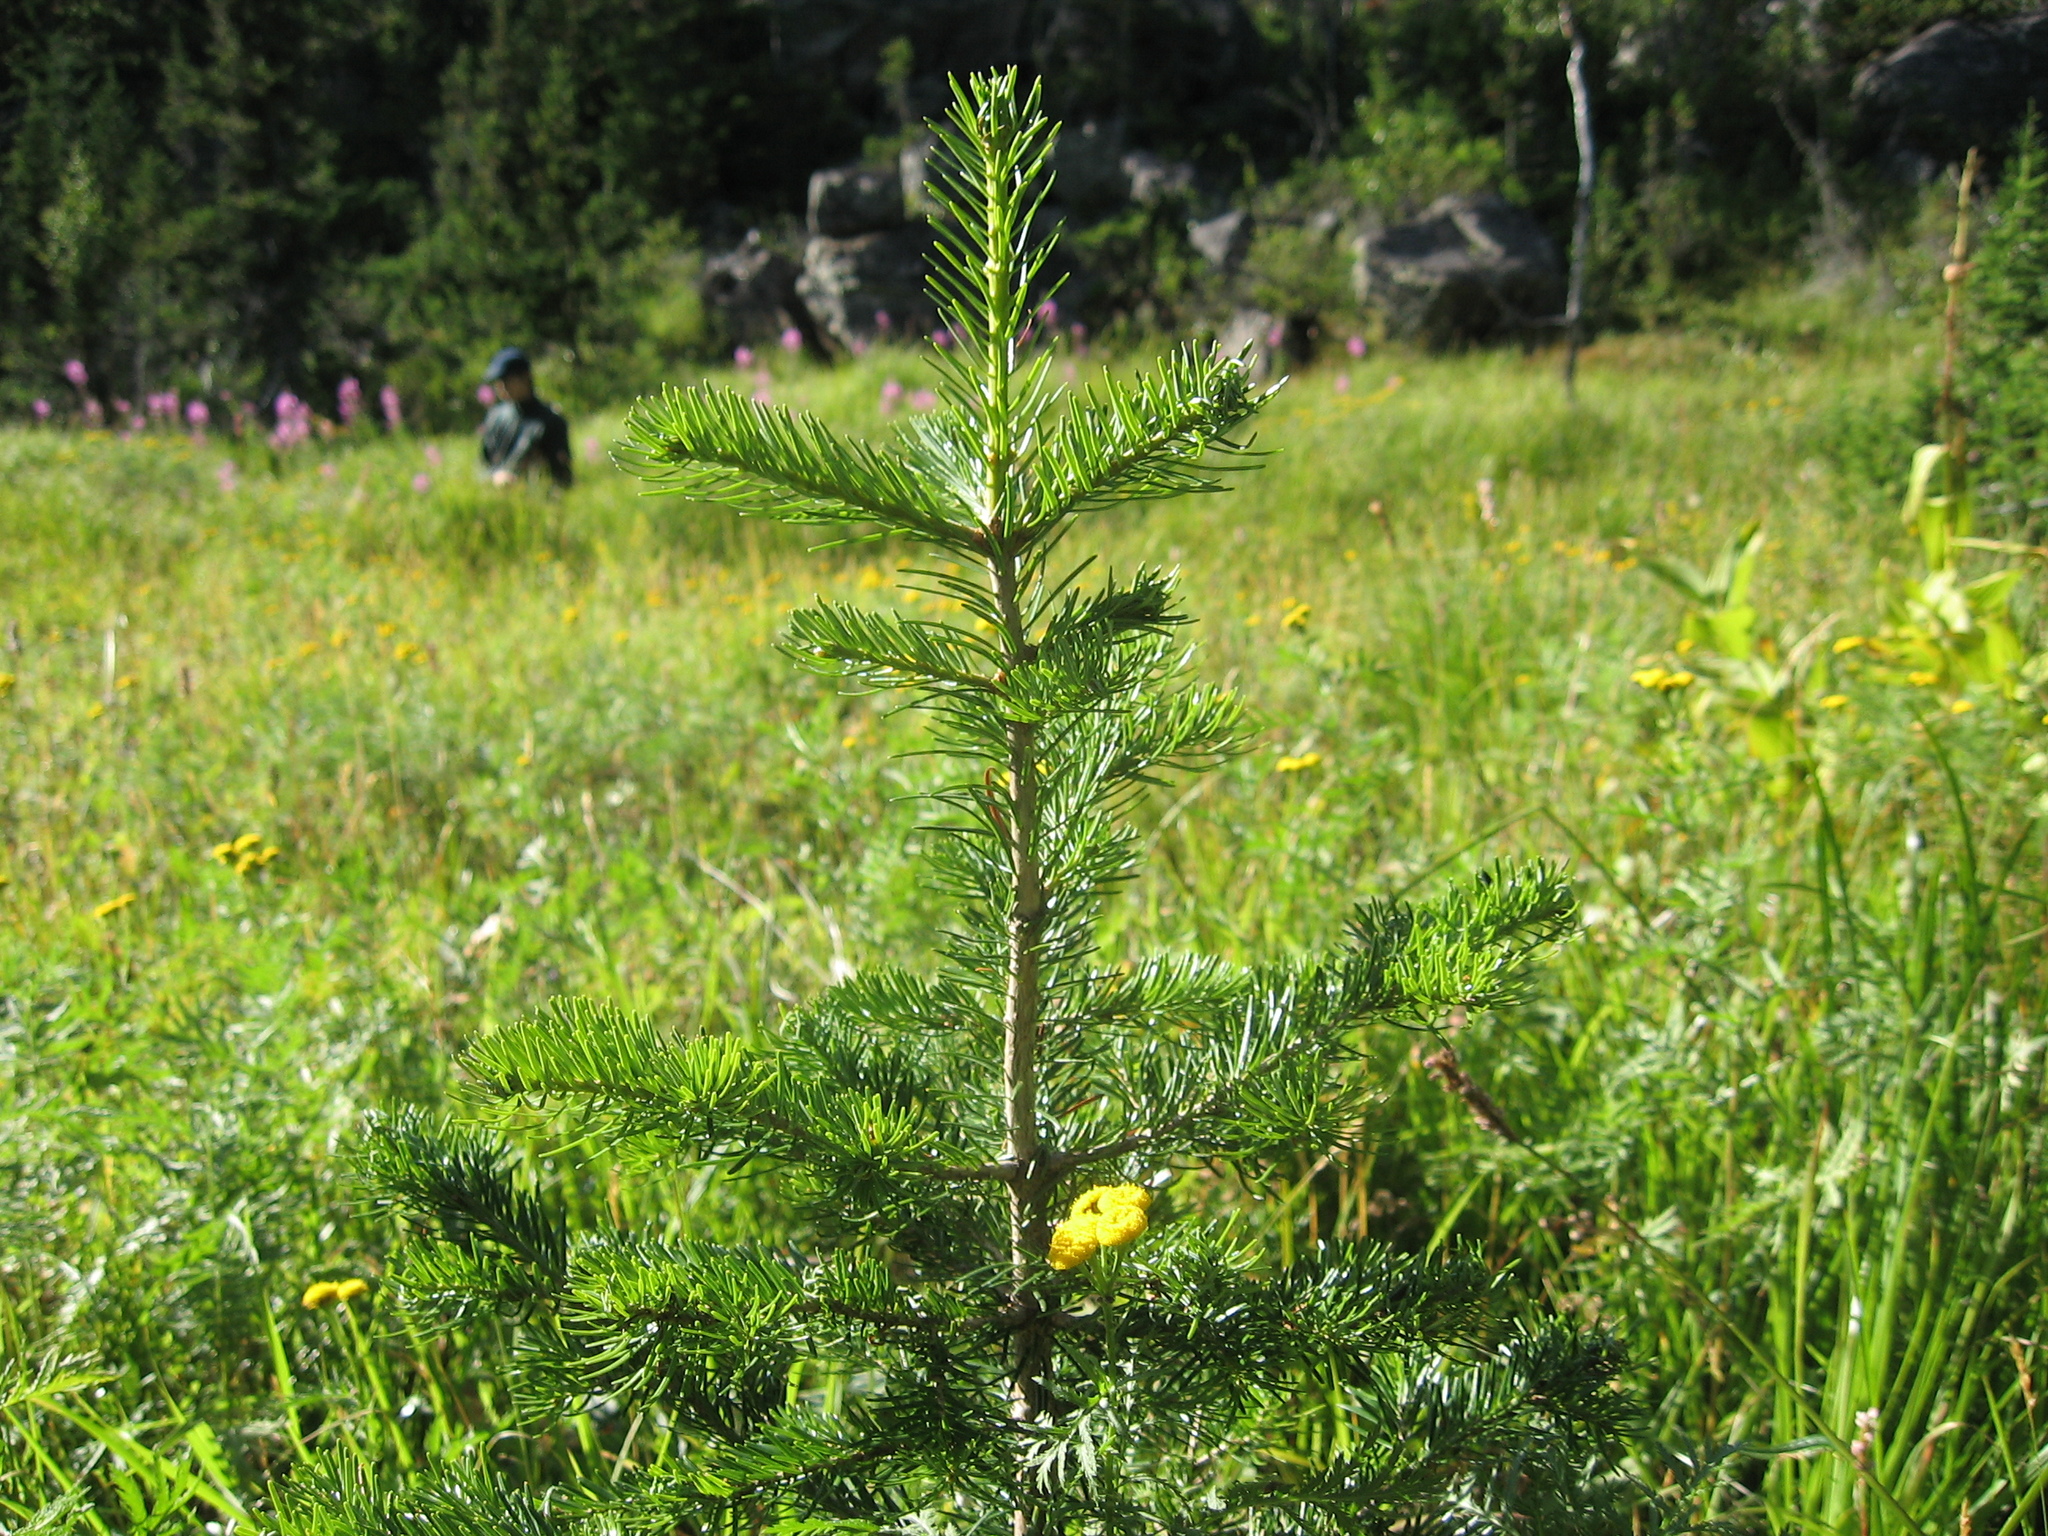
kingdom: Plantae
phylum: Tracheophyta
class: Pinopsida
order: Pinales
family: Pinaceae
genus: Abies
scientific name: Abies sibirica
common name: Siberian fir
